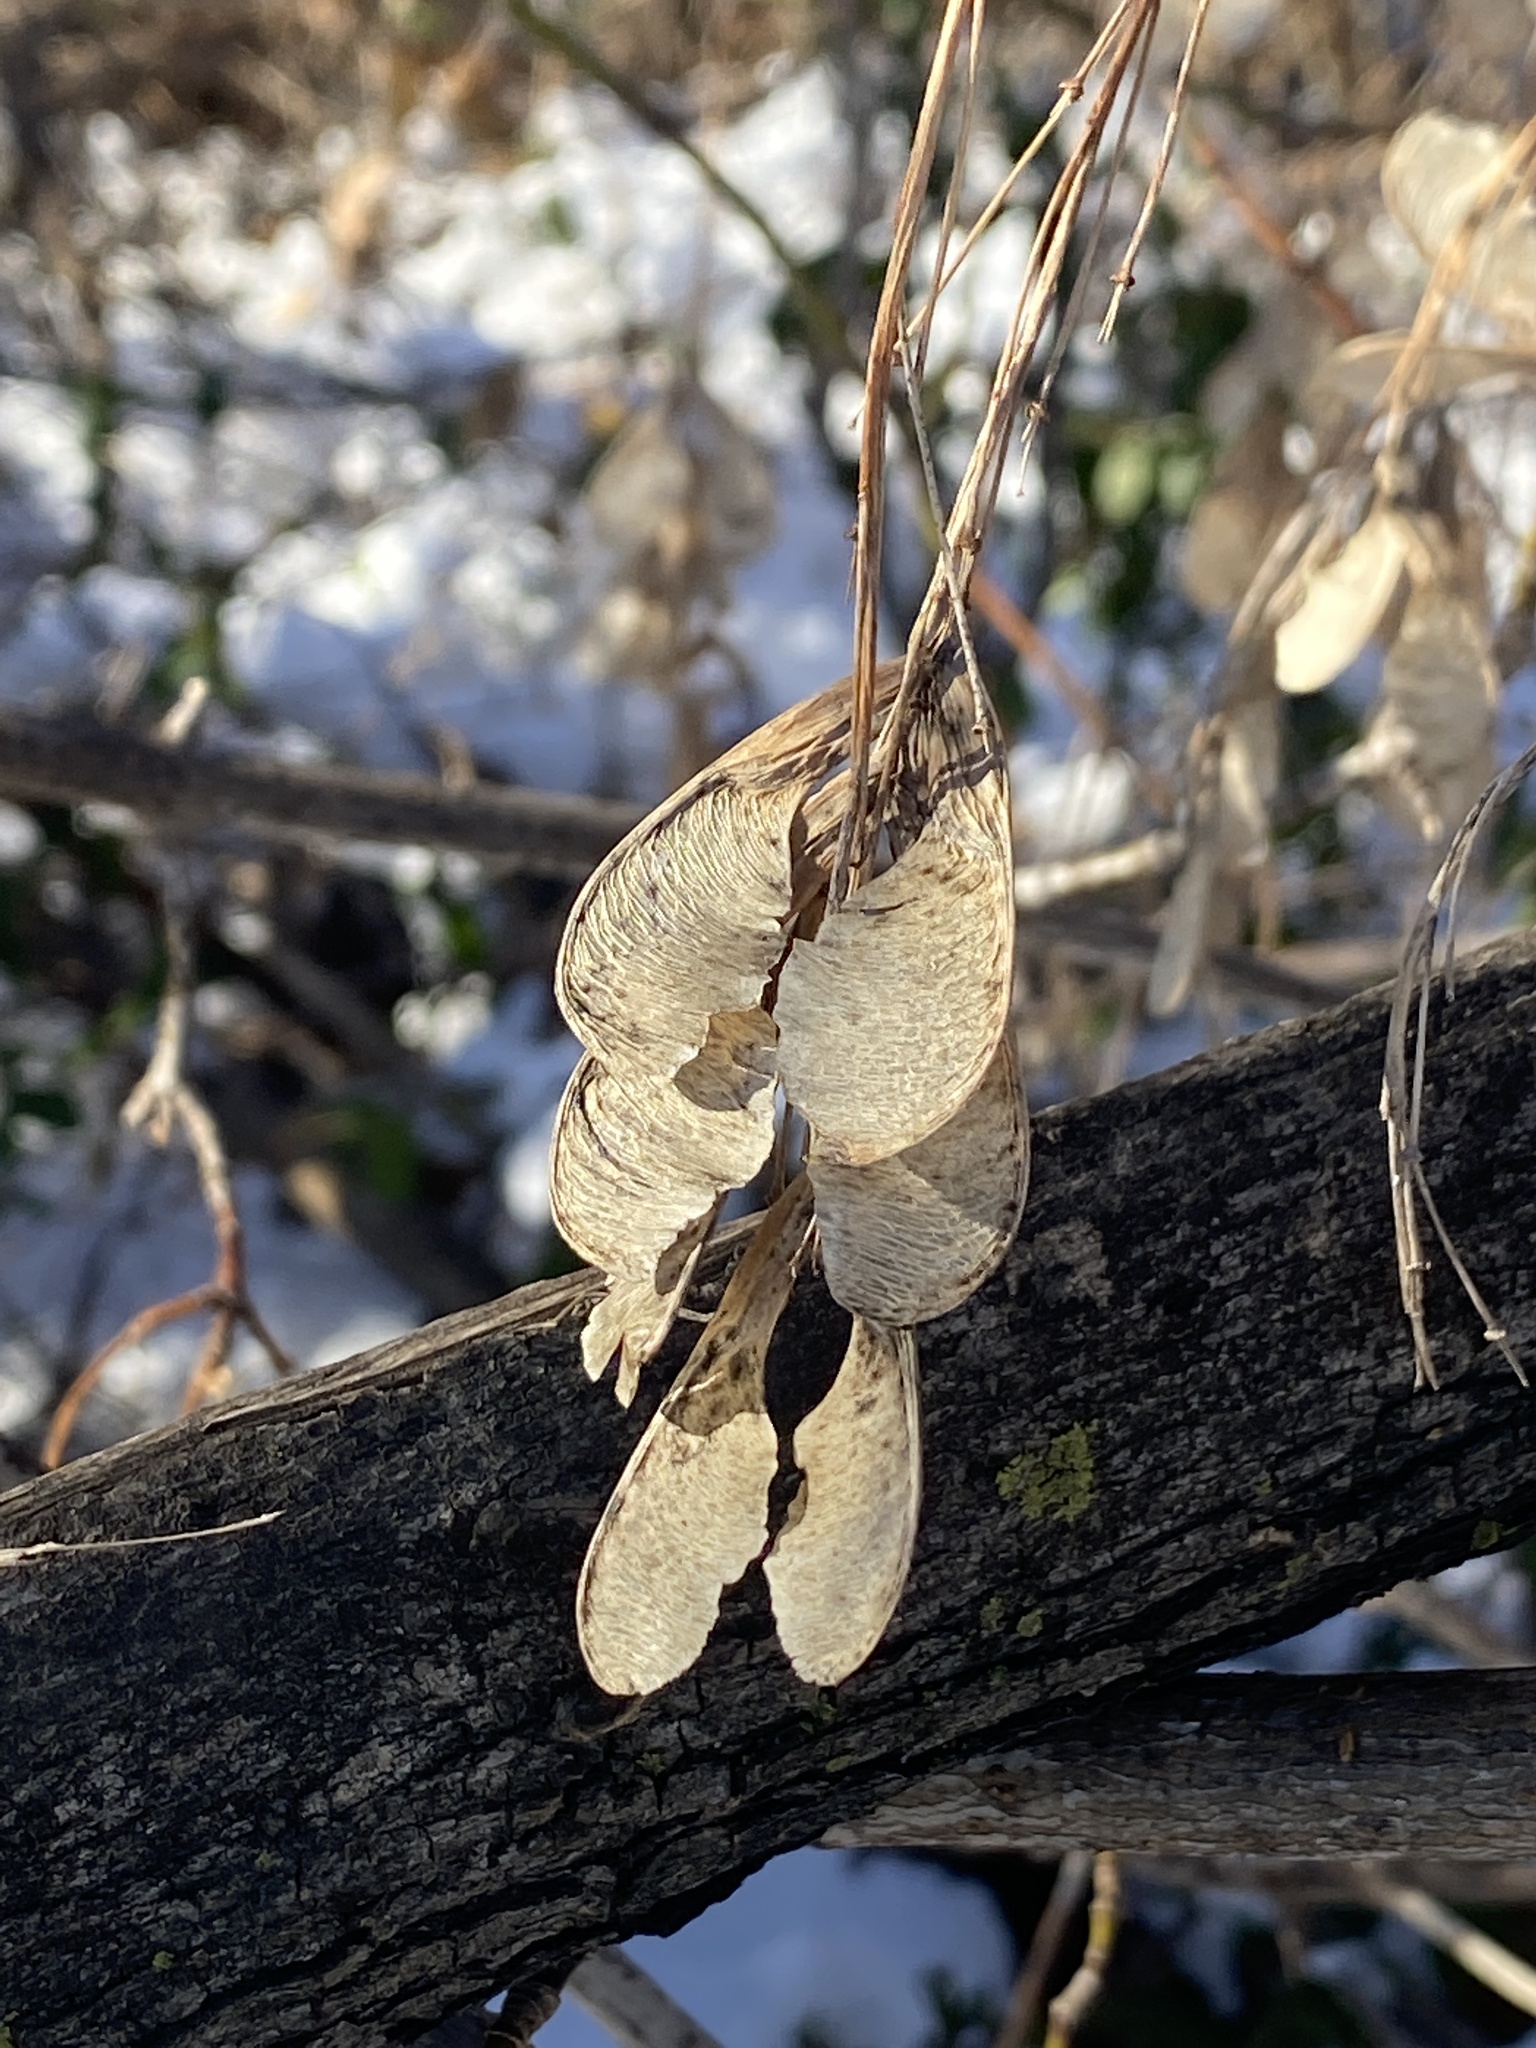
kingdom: Plantae
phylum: Tracheophyta
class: Magnoliopsida
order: Sapindales
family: Sapindaceae
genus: Acer
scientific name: Acer negundo
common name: Ashleaf maple
